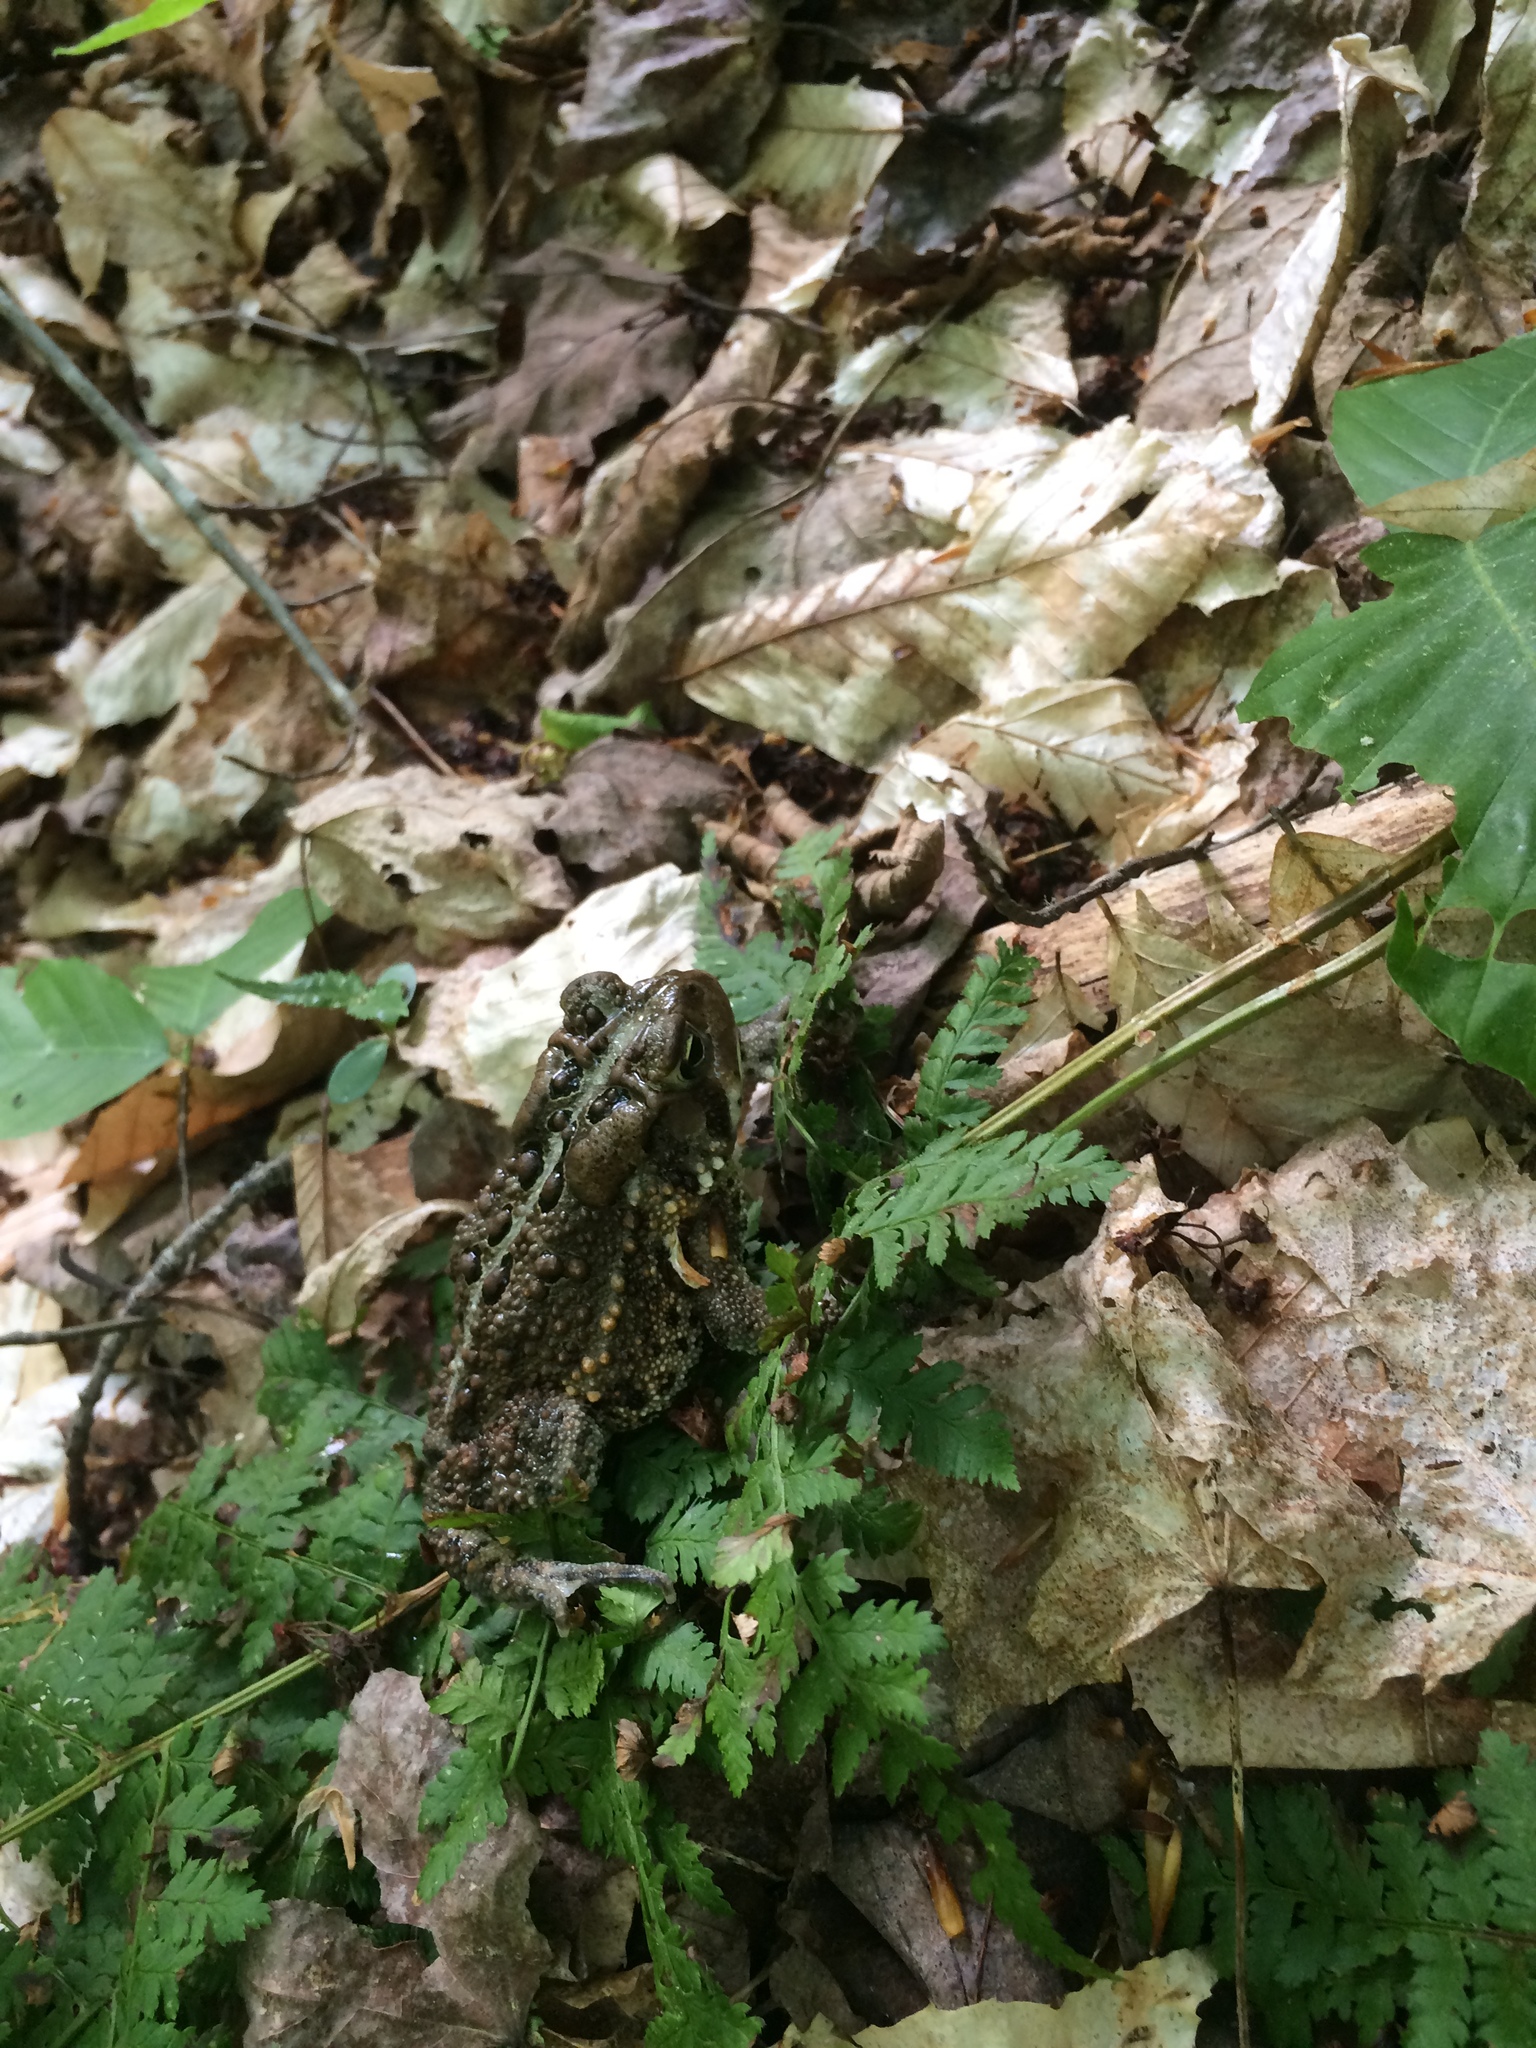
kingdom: Animalia
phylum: Chordata
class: Amphibia
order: Anura
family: Bufonidae
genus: Anaxyrus
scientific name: Anaxyrus americanus
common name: American toad
